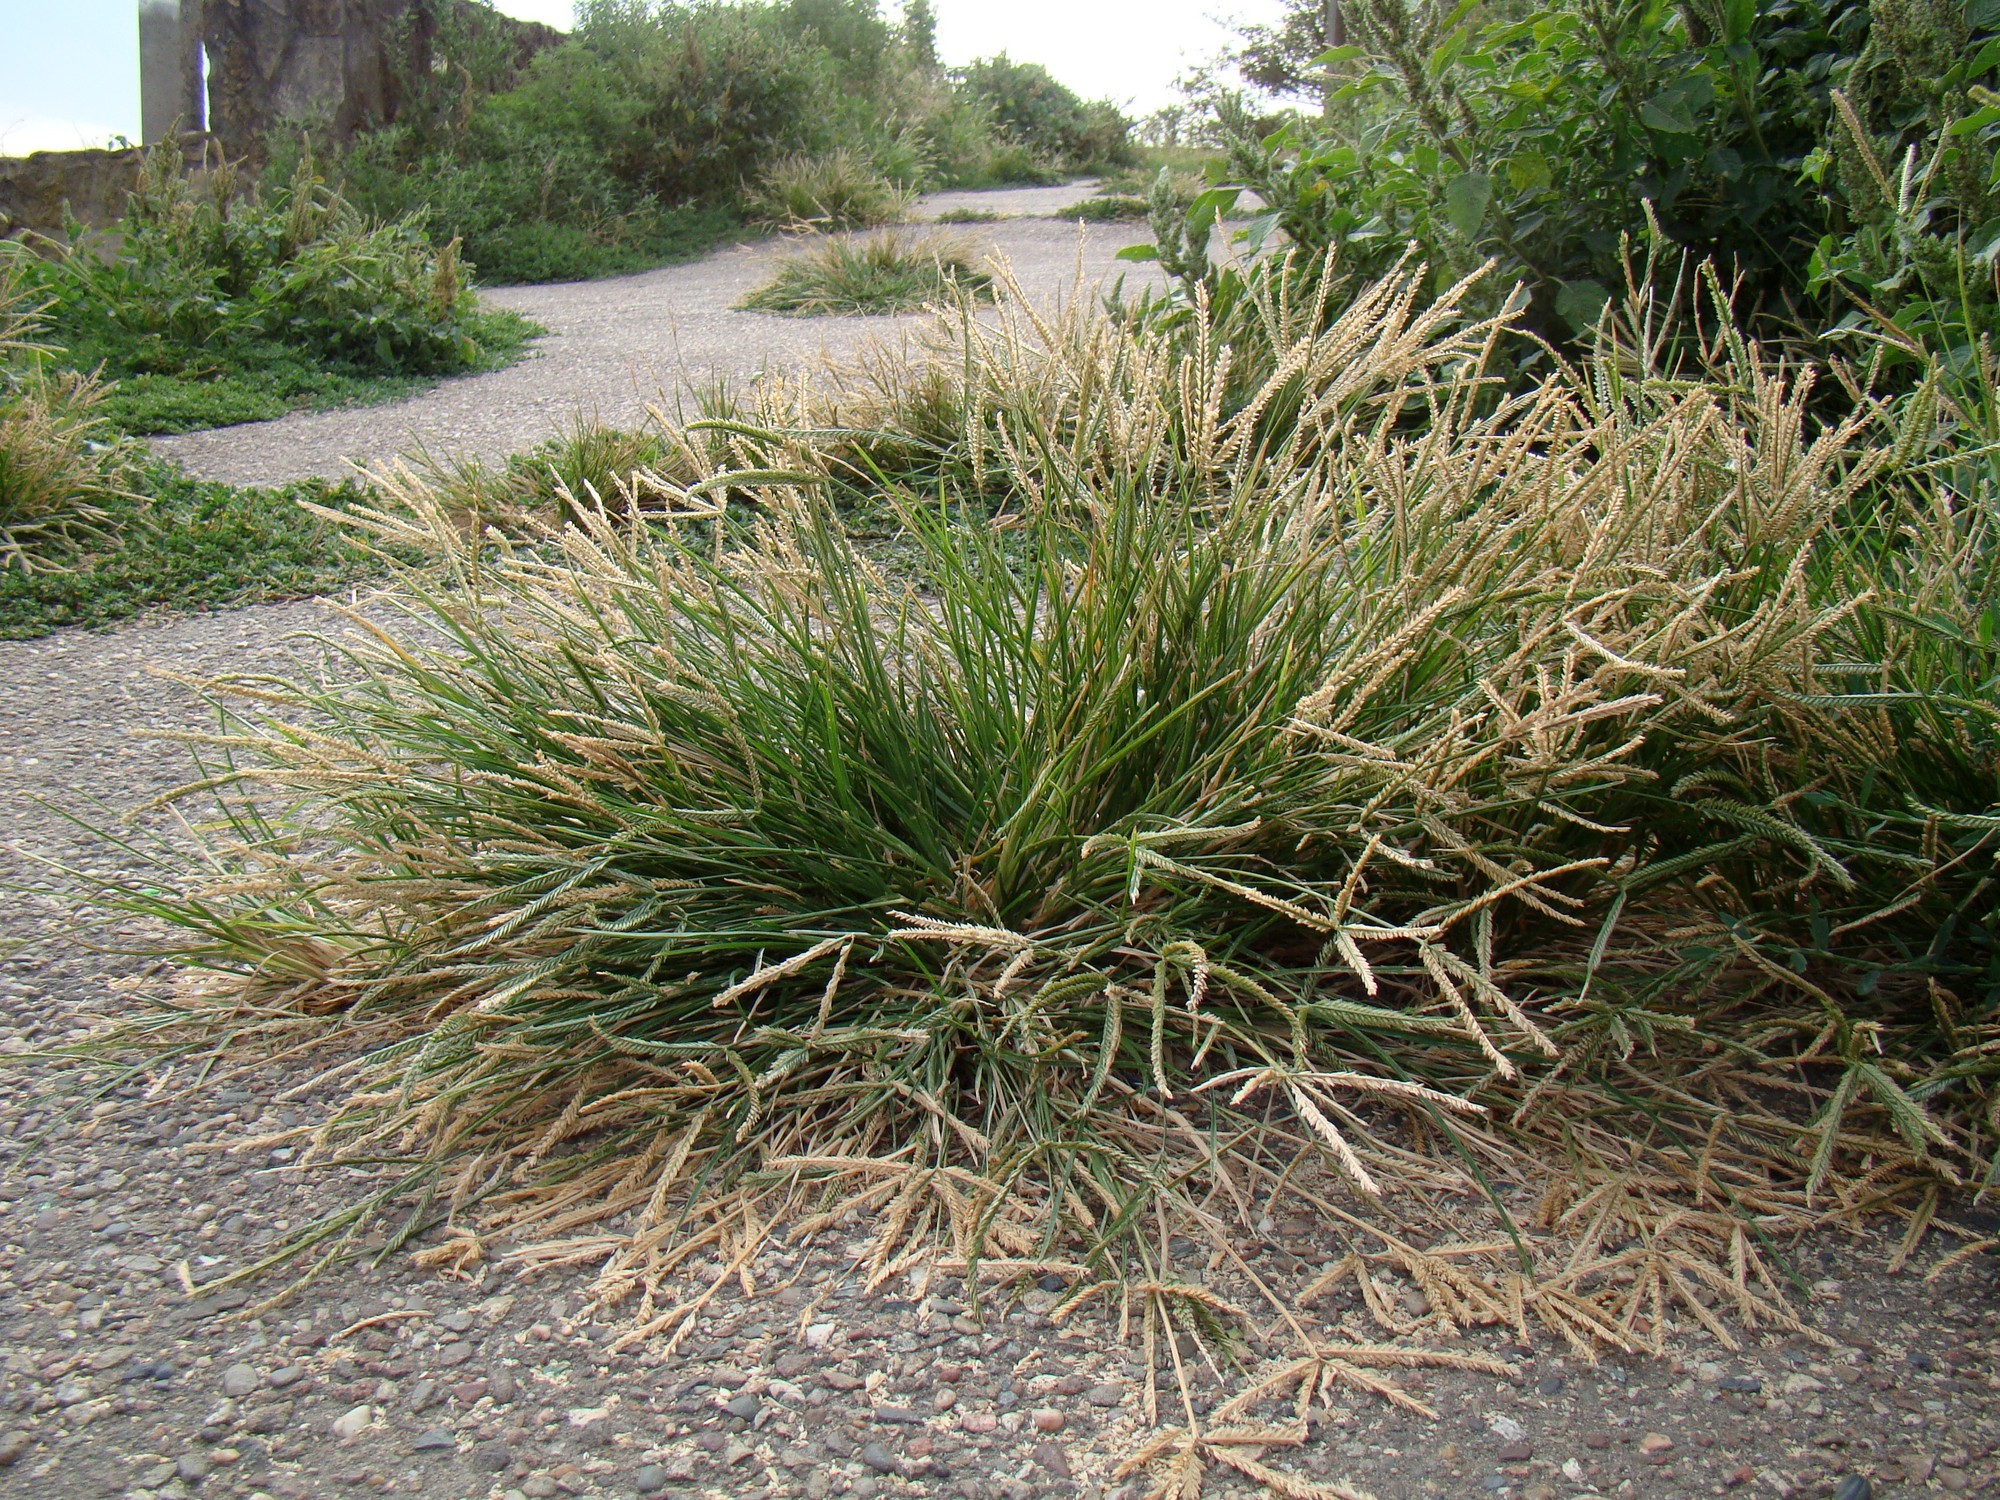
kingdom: Plantae
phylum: Tracheophyta
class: Liliopsida
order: Poales
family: Poaceae
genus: Eleusine
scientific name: Eleusine indica
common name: Yard-grass
